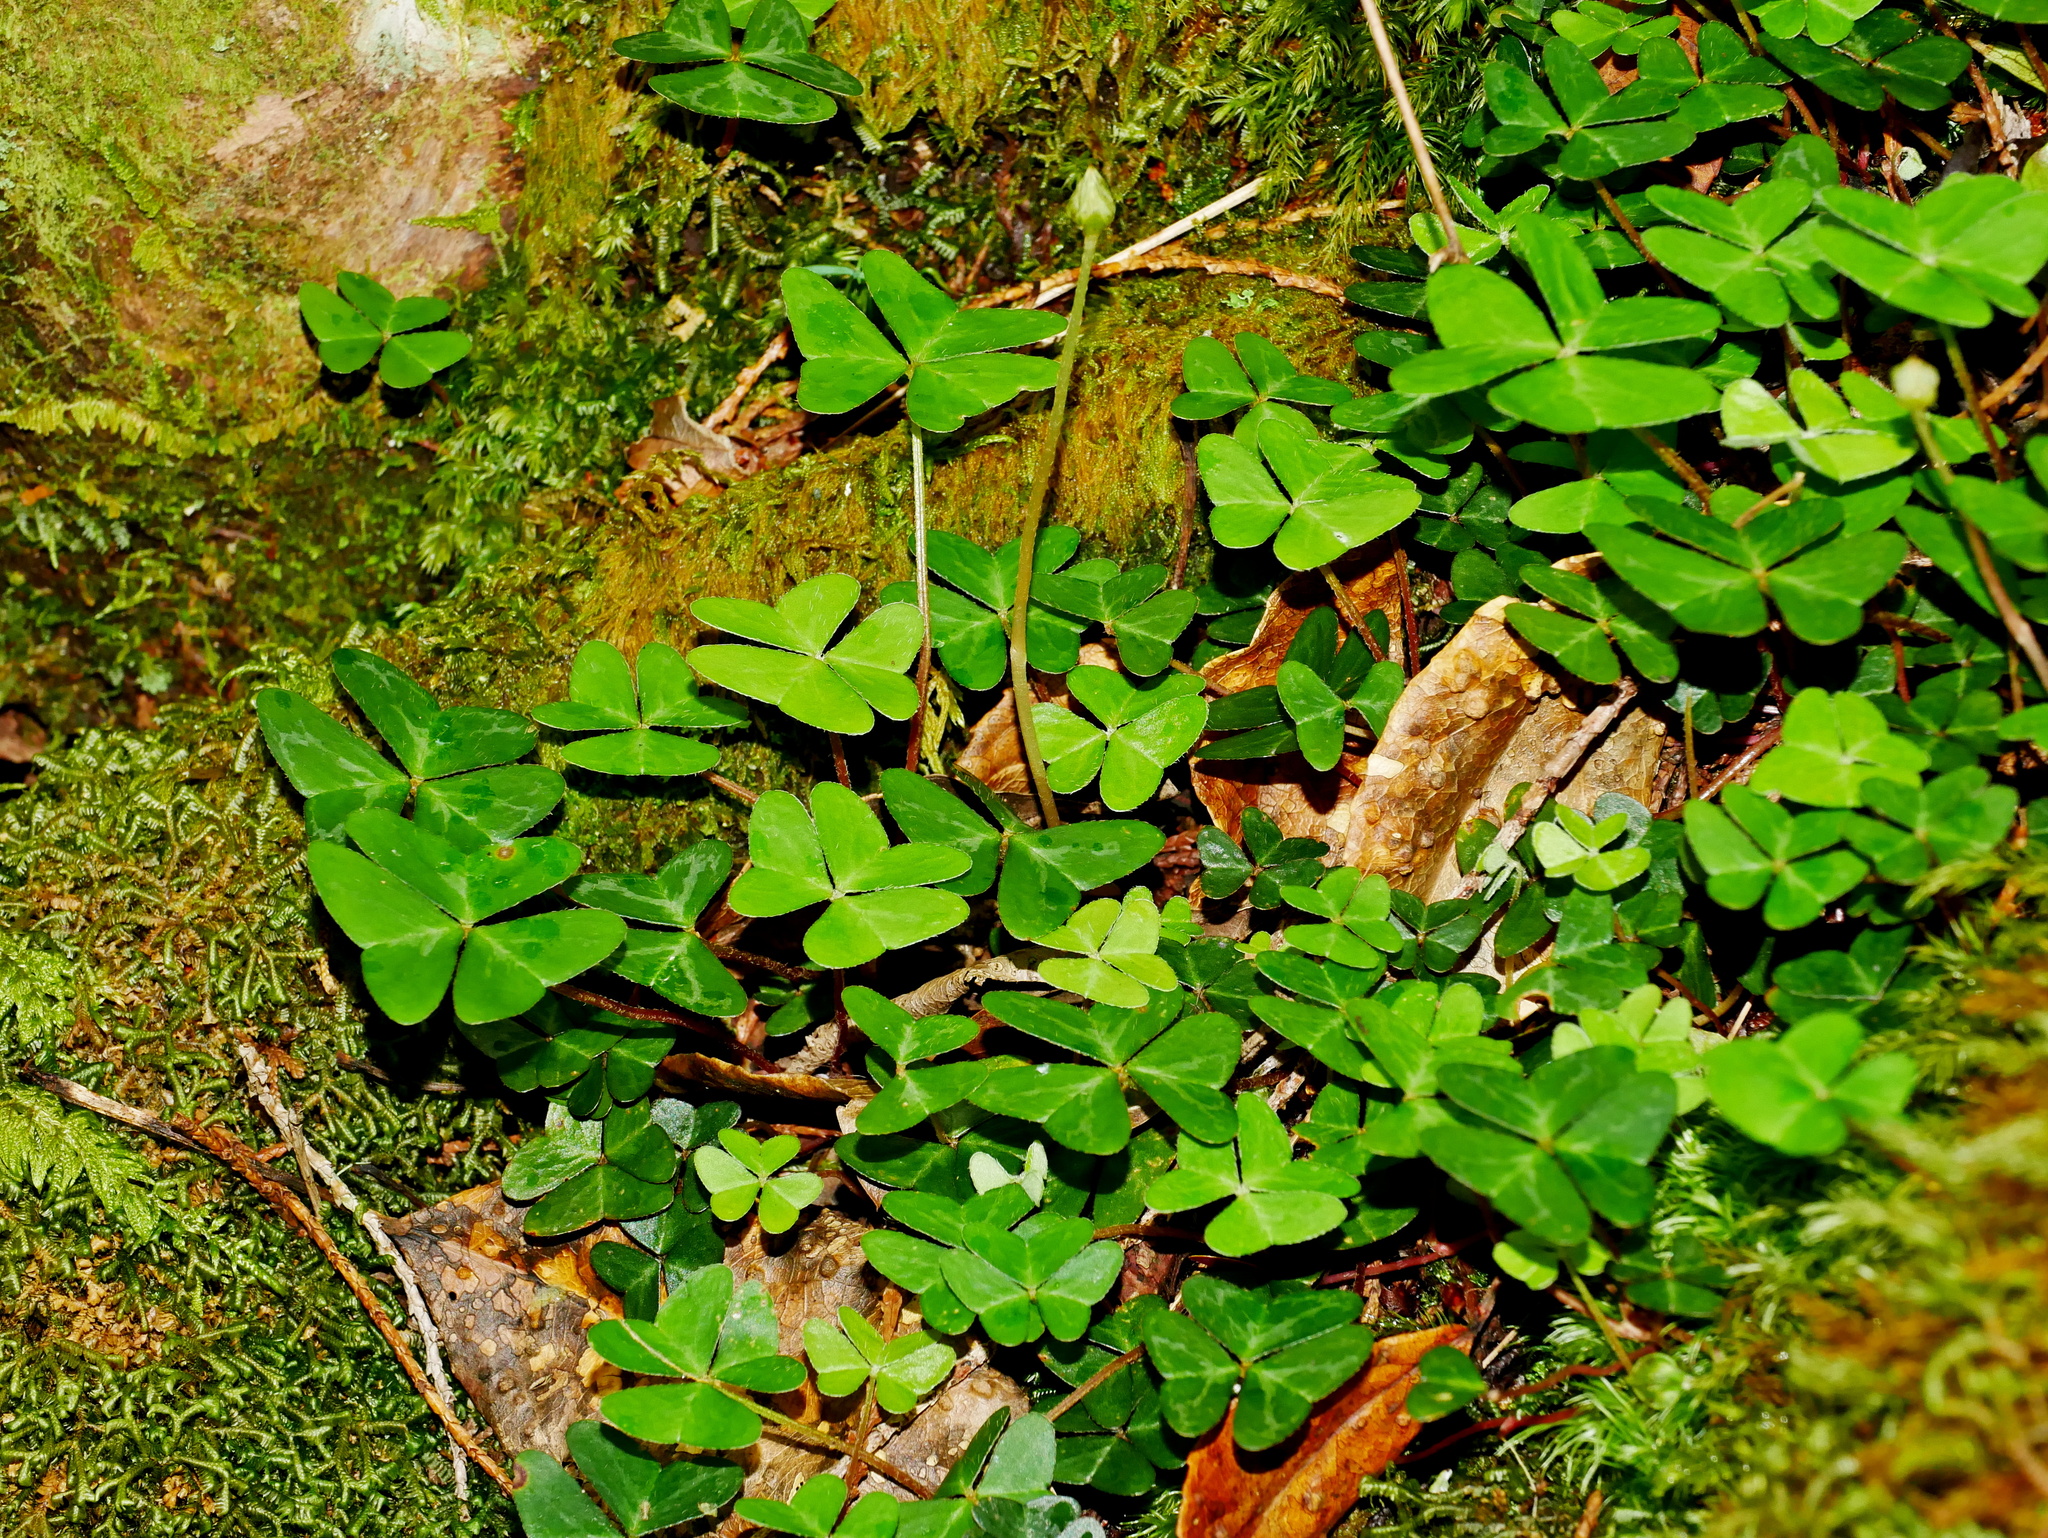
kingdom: Plantae
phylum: Tracheophyta
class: Magnoliopsida
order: Oxalidales
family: Oxalidaceae
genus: Oxalis
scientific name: Oxalis griffithii
